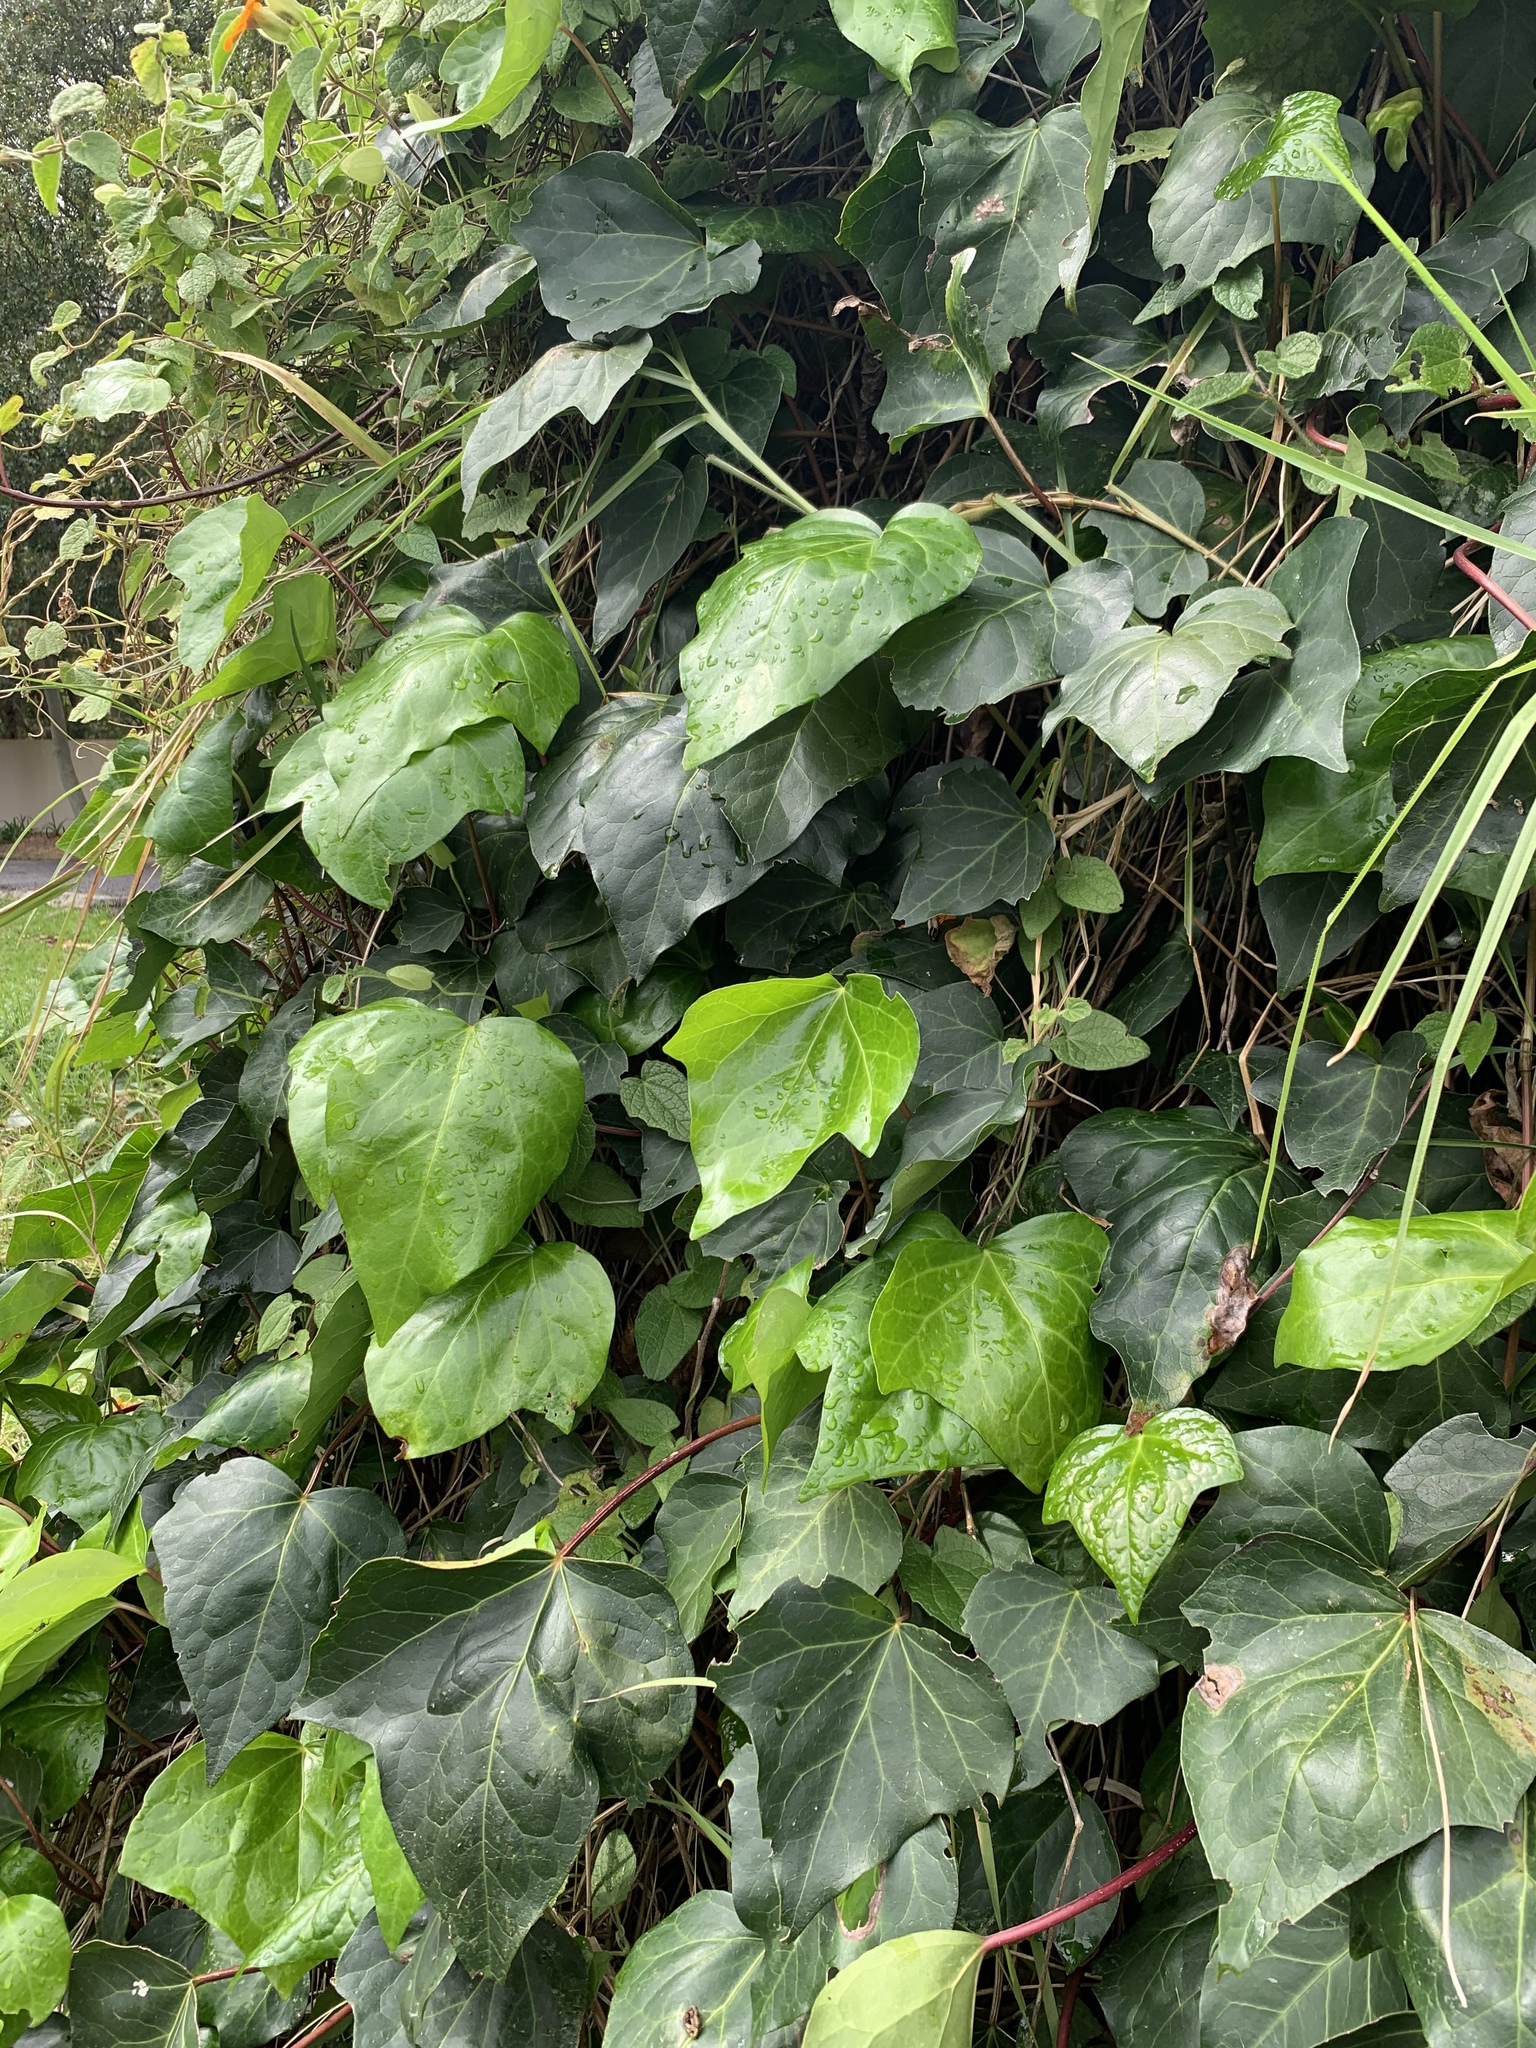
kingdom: Plantae
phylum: Tracheophyta
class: Magnoliopsida
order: Apiales
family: Araliaceae
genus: Hedera
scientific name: Hedera canariensis
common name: Madeira ivy
